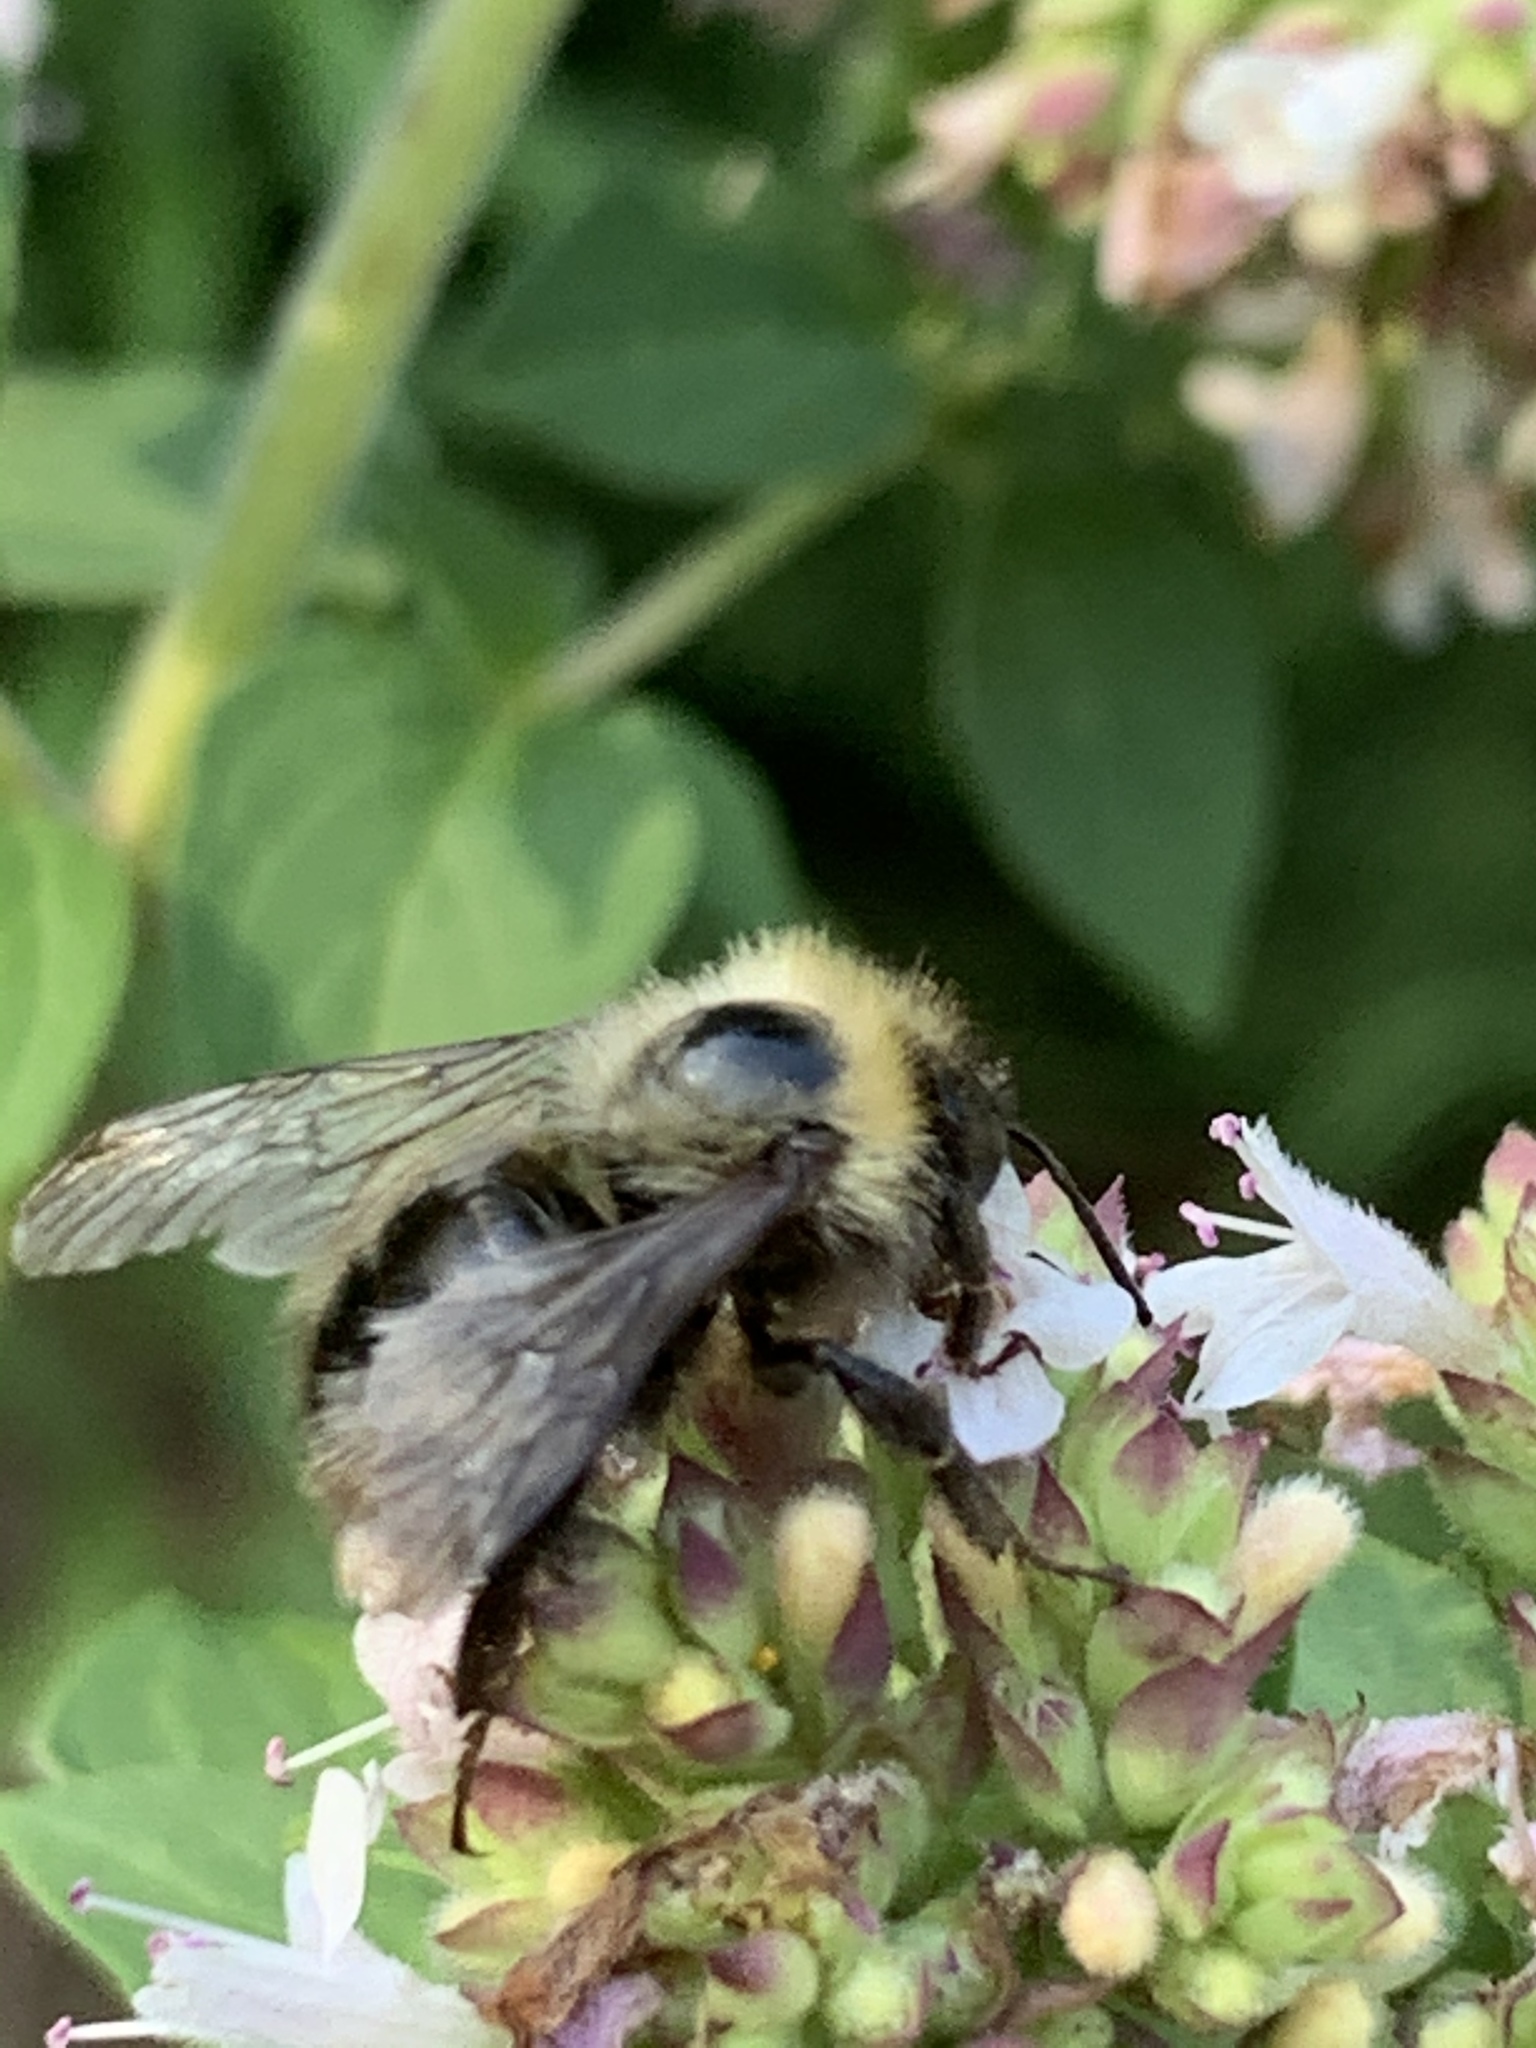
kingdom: Animalia
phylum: Arthropoda
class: Insecta
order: Hymenoptera
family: Apidae
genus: Bombus
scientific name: Bombus perplexus
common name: Confusing bumble bee
